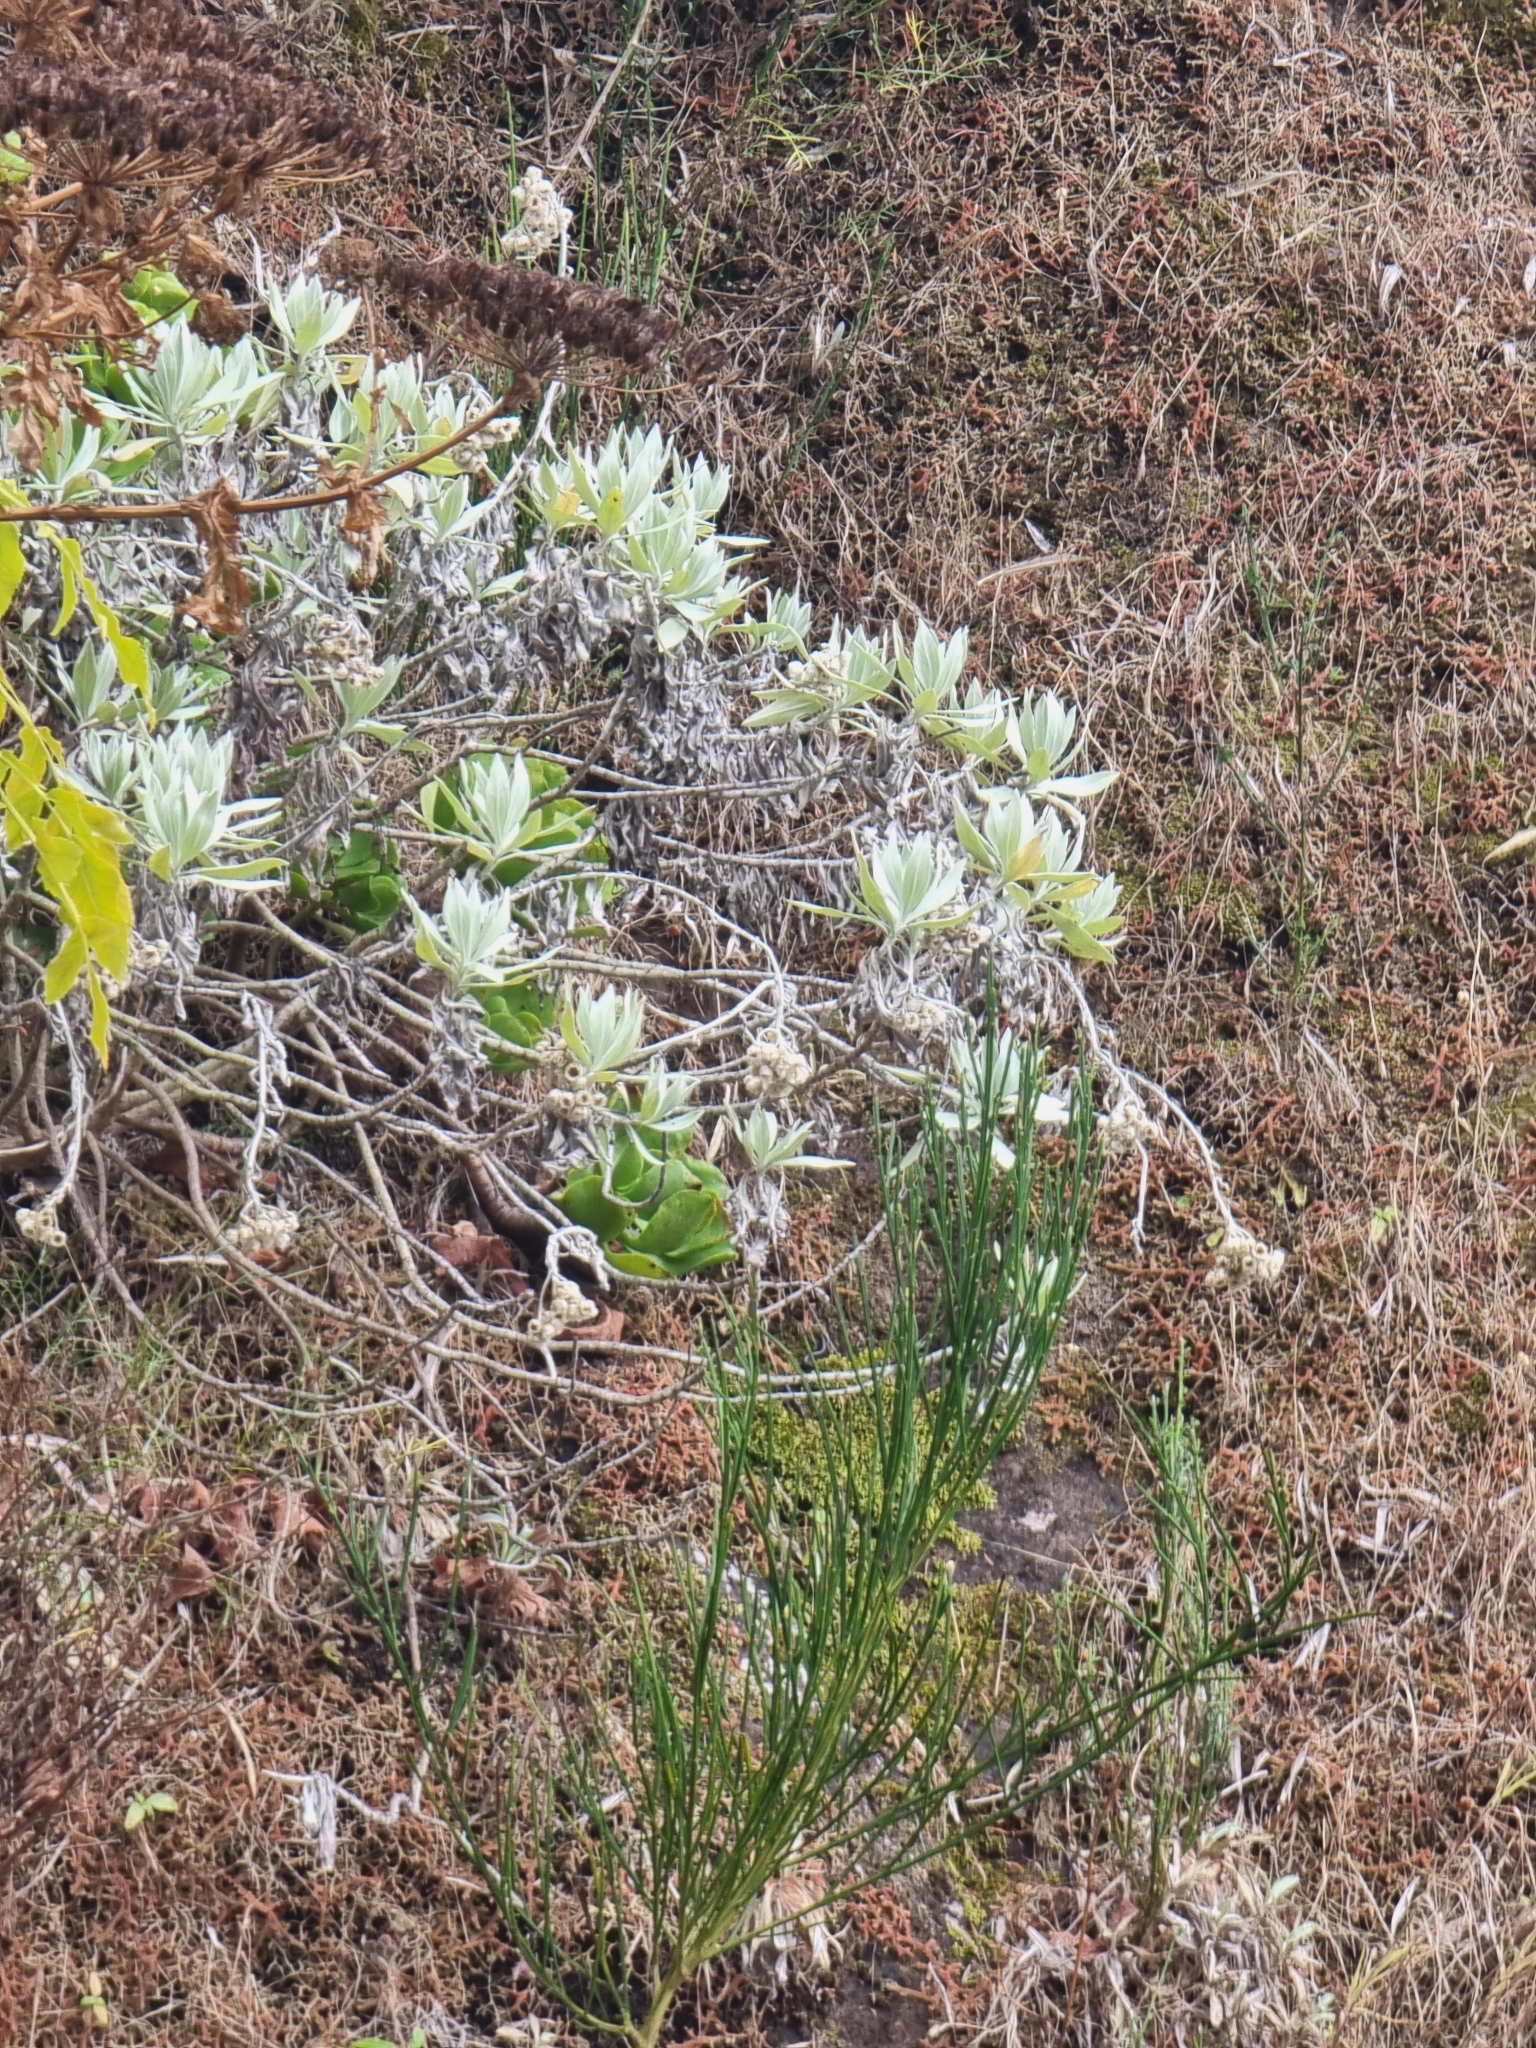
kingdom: Plantae
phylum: Tracheophyta
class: Magnoliopsida
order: Asterales
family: Asteraceae
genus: Helichrysum
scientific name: Helichrysum melaleucum
